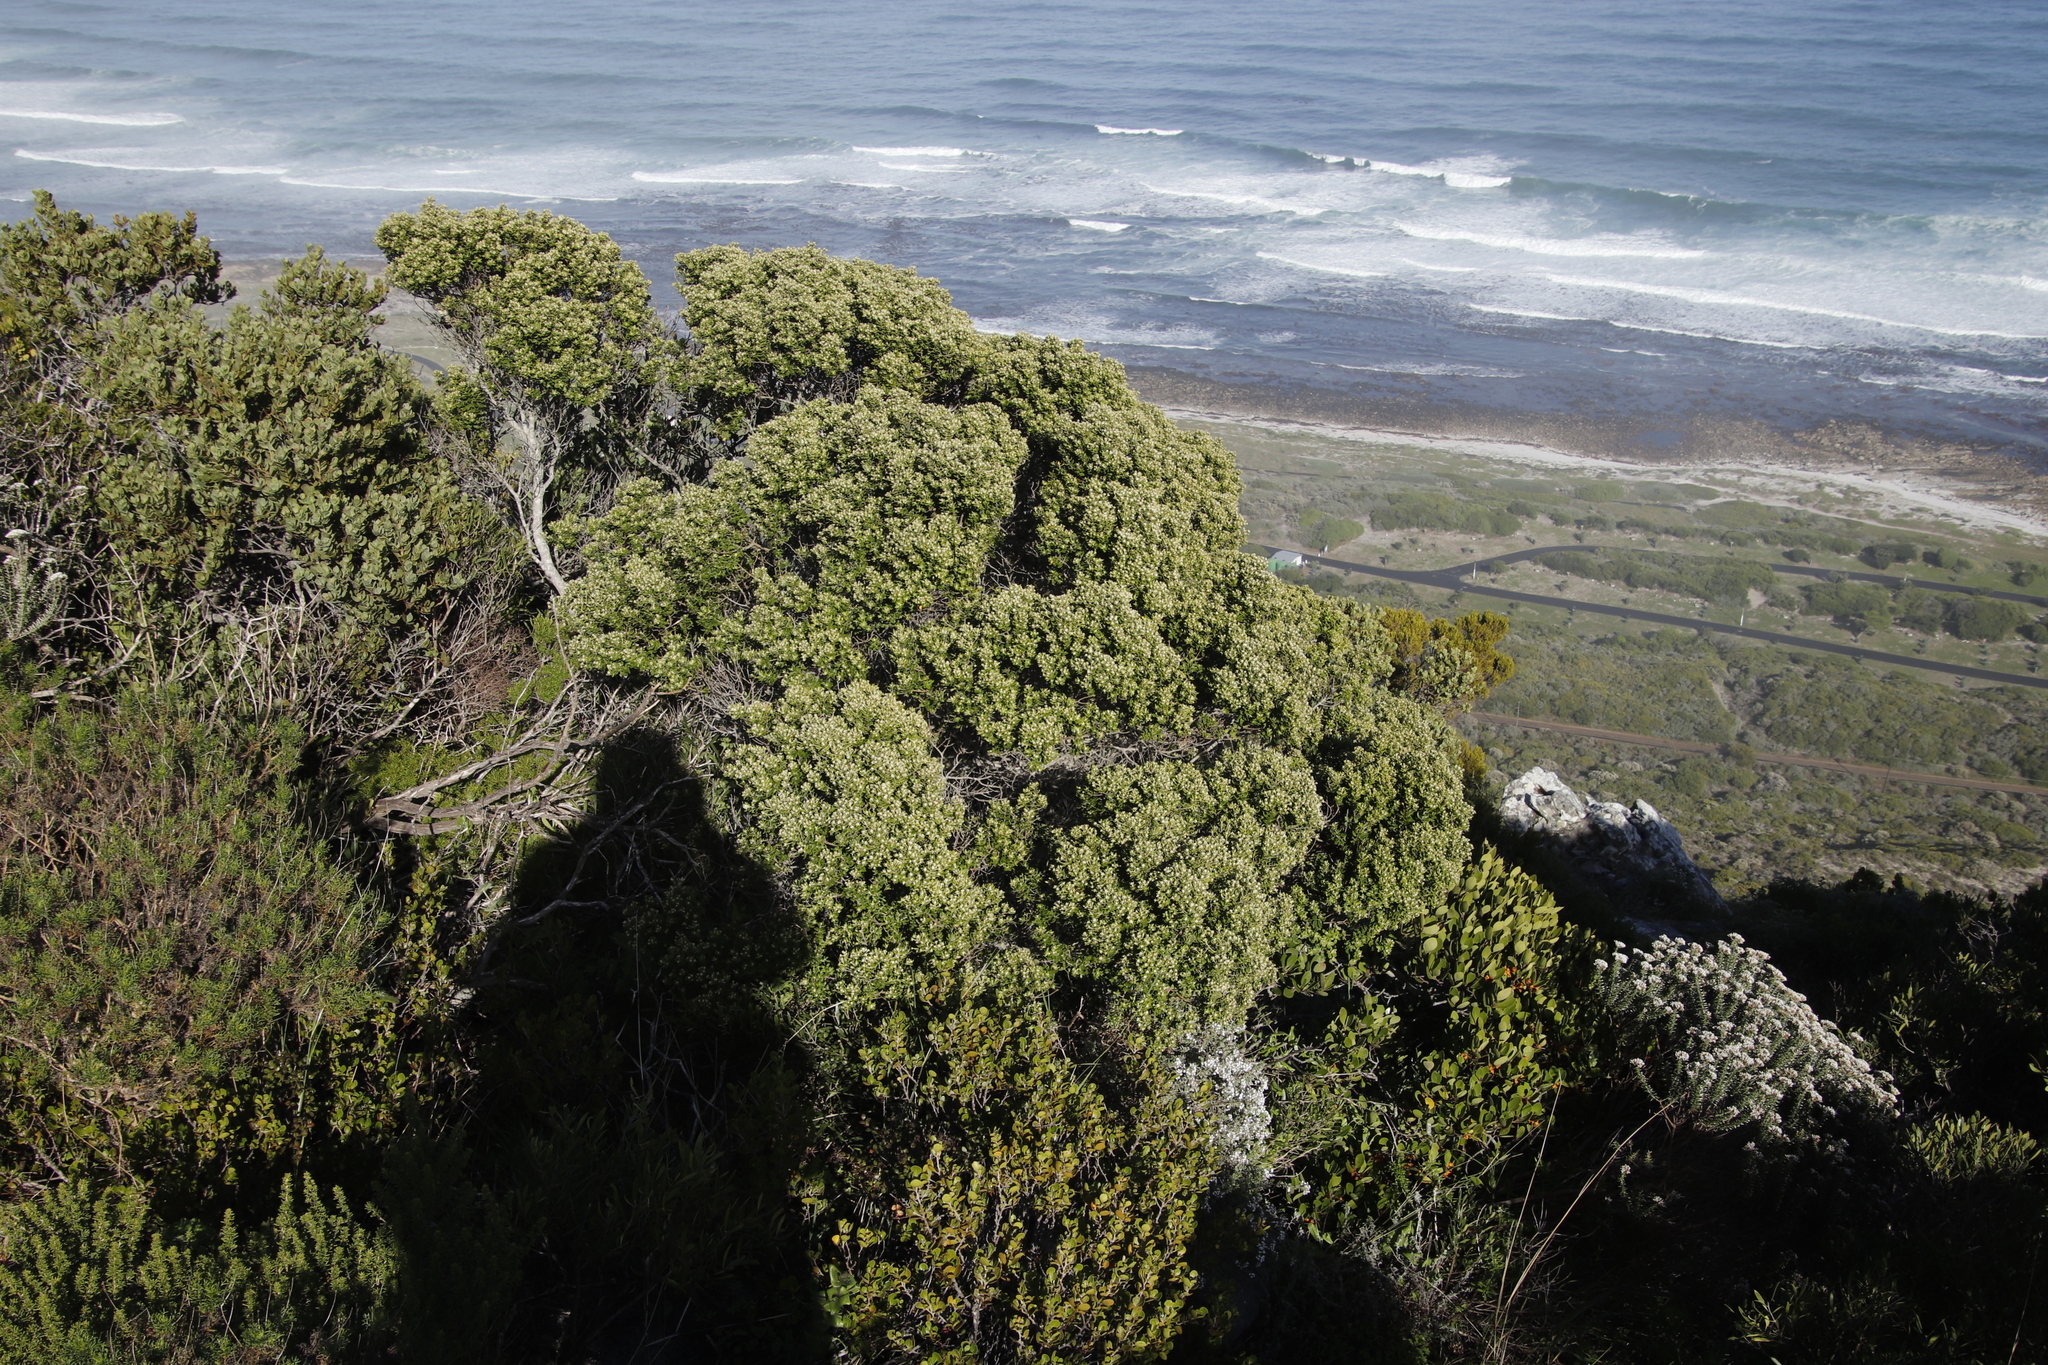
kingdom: Plantae
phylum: Tracheophyta
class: Magnoliopsida
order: Rosales
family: Rhamnaceae
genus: Phylica
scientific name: Phylica buxifolia
